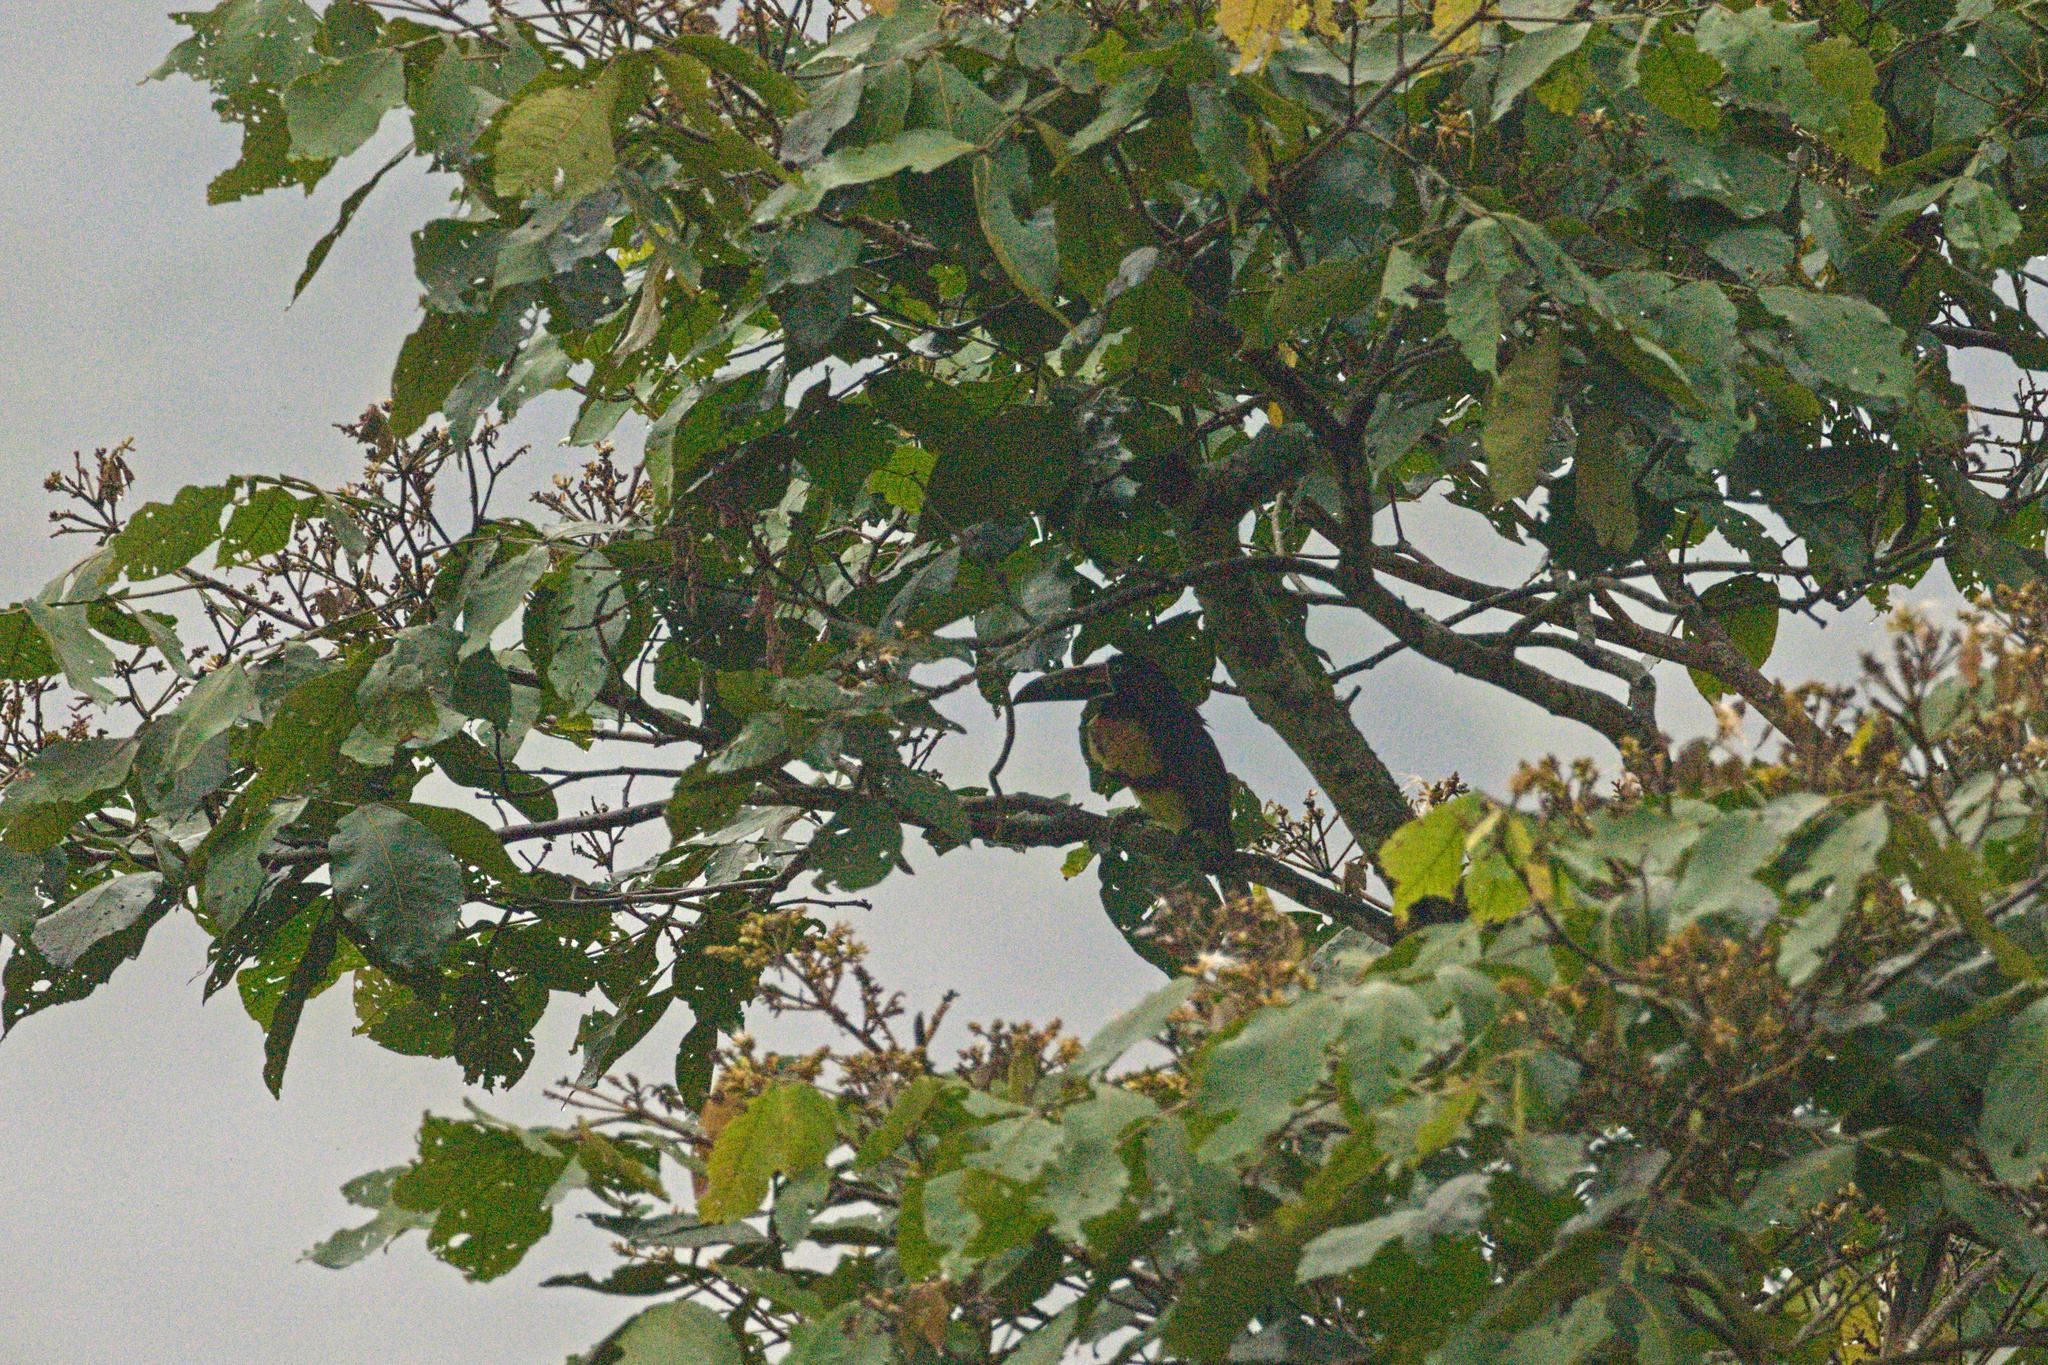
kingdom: Animalia
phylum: Chordata
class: Aves
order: Piciformes
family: Ramphastidae
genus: Pteroglossus
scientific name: Pteroglossus torquatus
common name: Collared aracari
